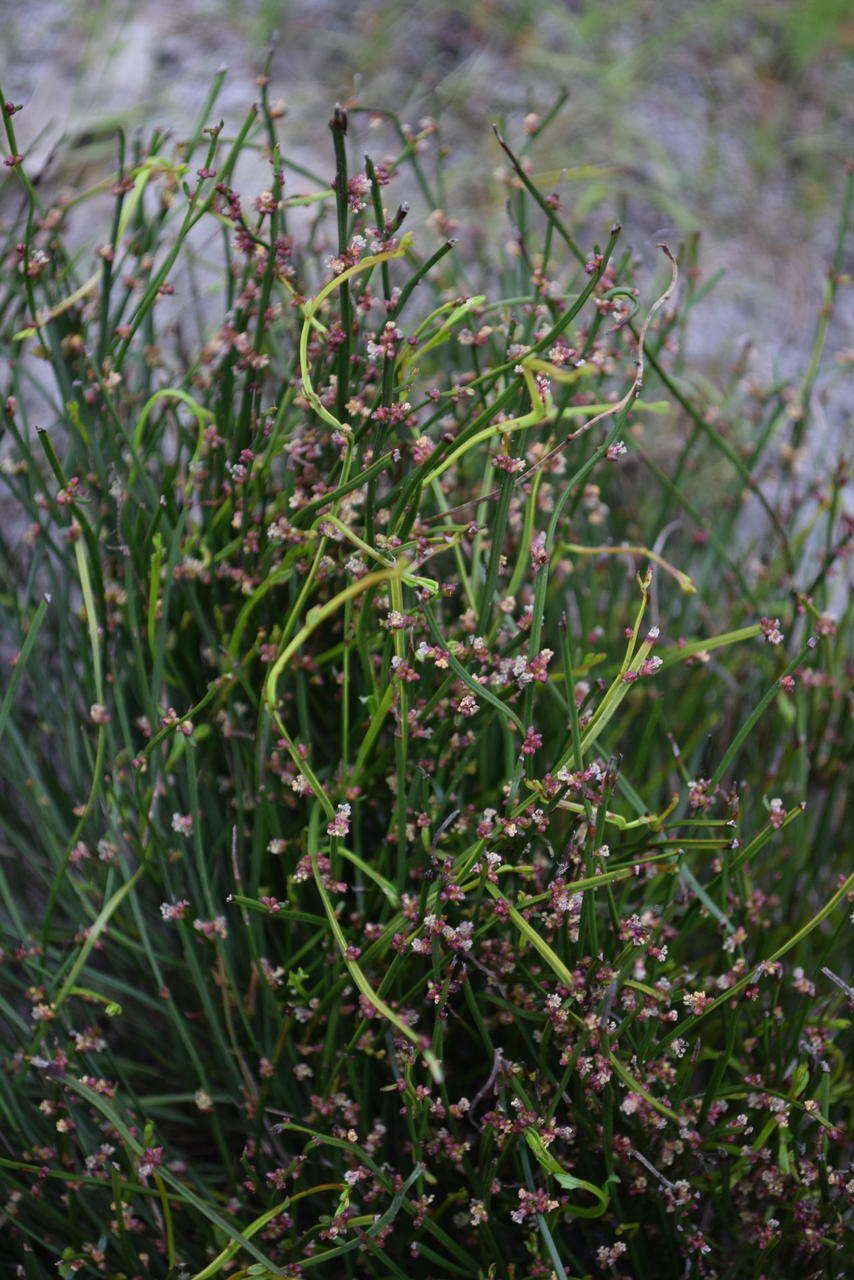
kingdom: Plantae
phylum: Tracheophyta
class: Magnoliopsida
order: Malpighiales
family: Euphorbiaceae
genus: Amperea
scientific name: Amperea xiphoclada
